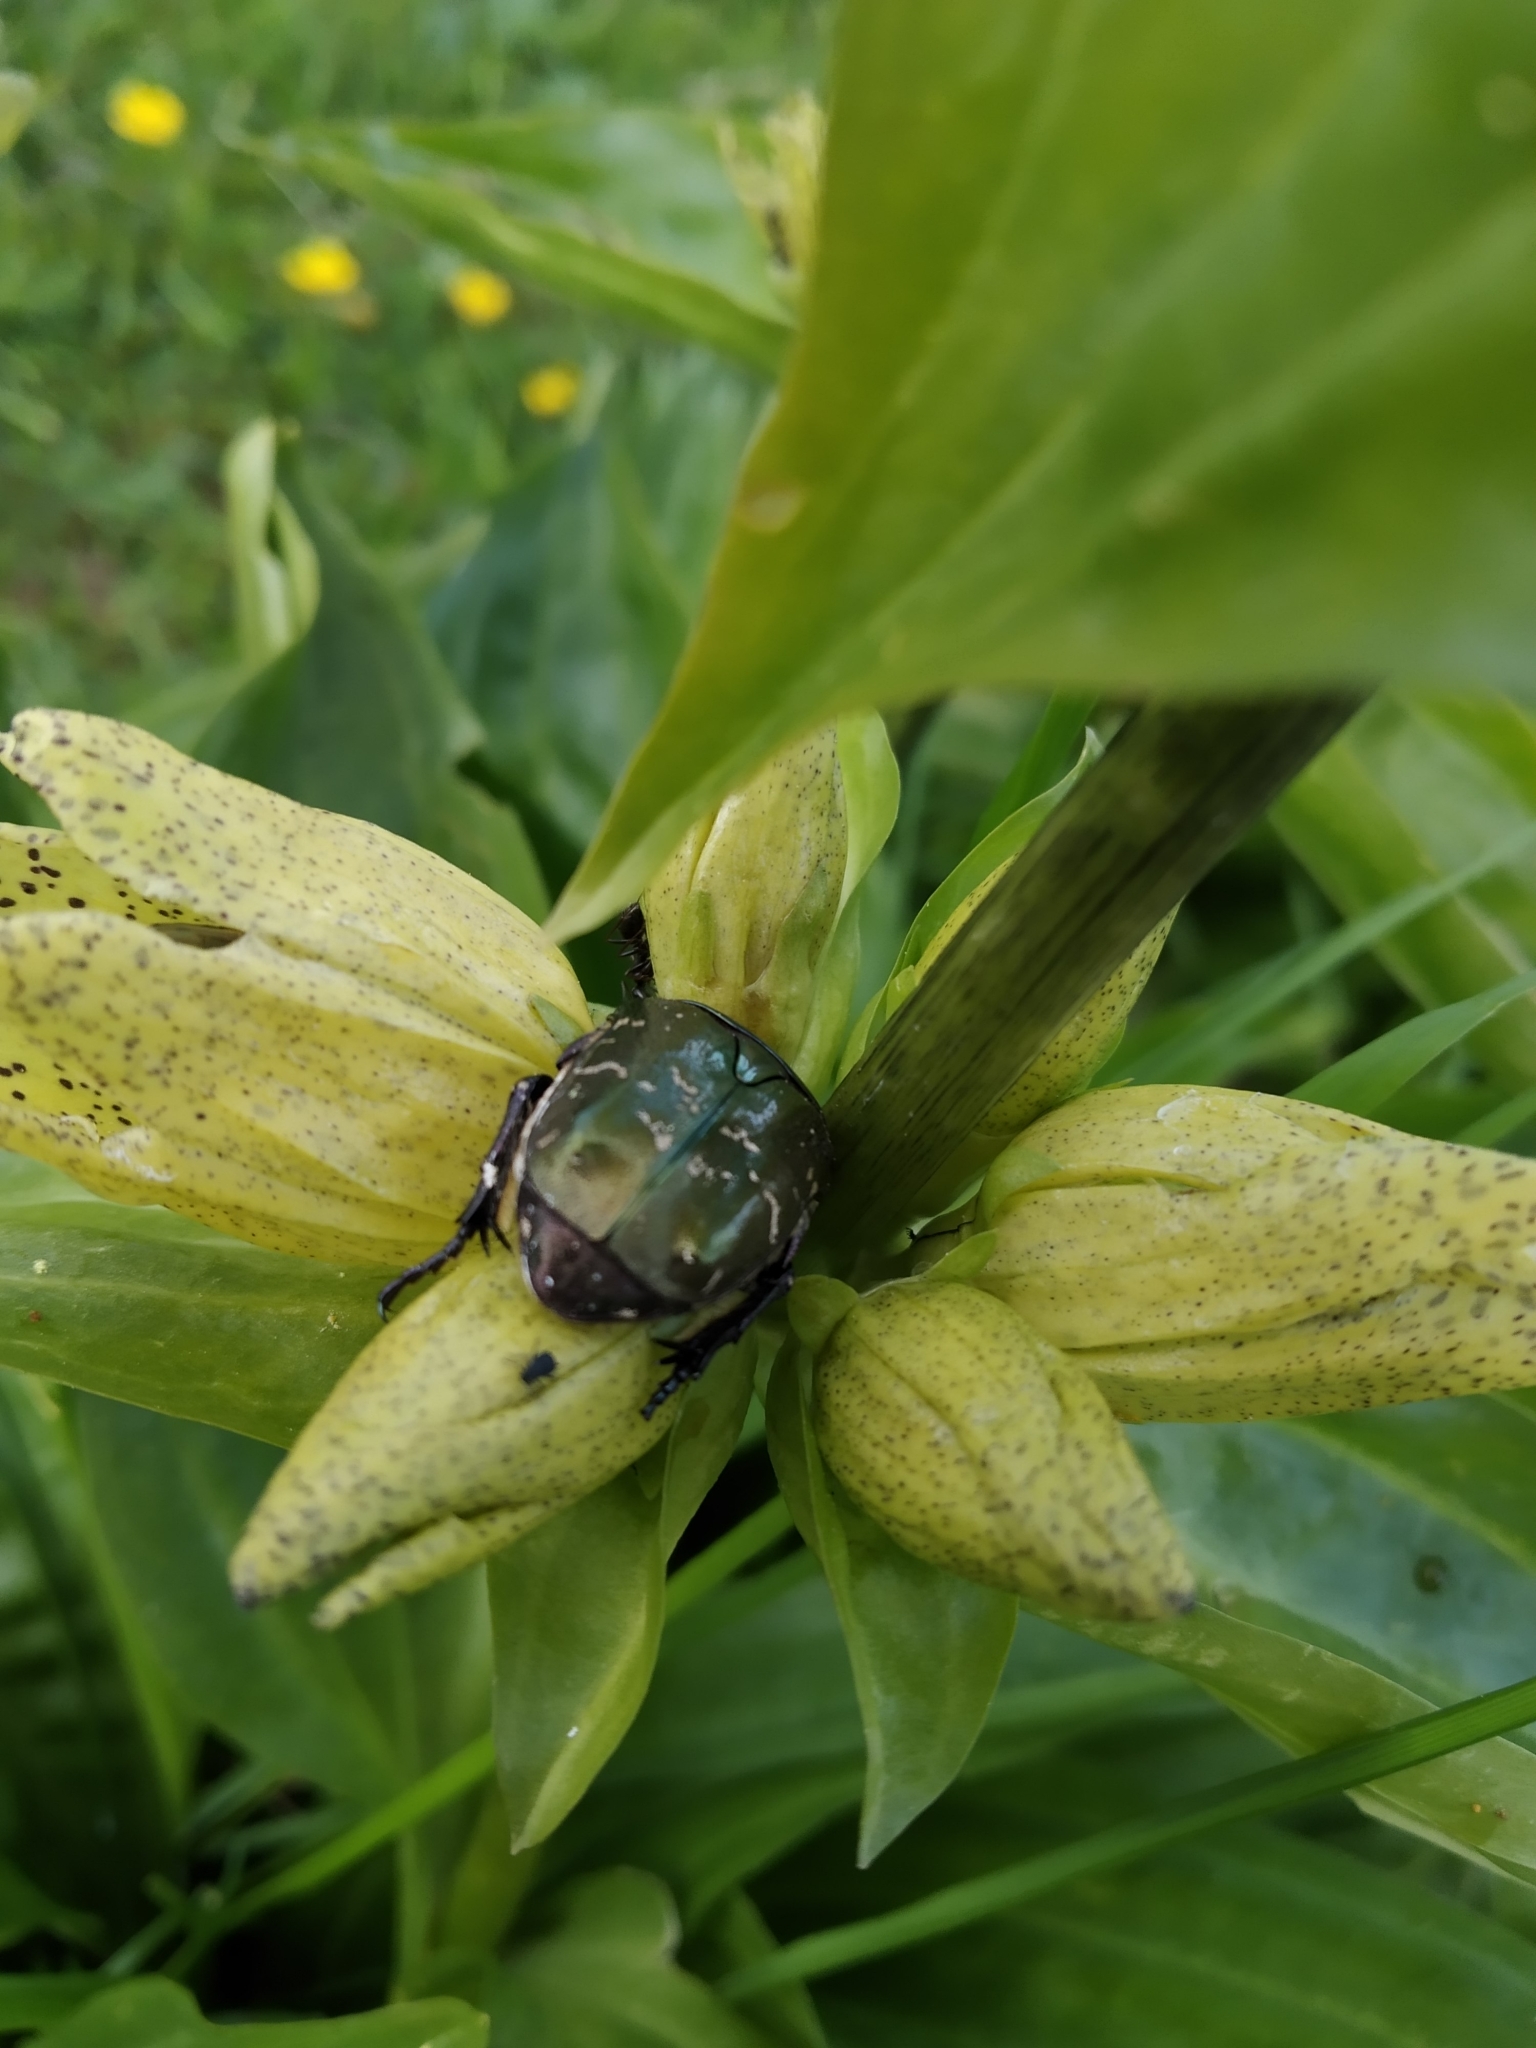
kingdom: Animalia
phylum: Arthropoda
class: Insecta
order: Coleoptera
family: Scarabaeidae
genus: Protaetia
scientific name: Protaetia cuprea
